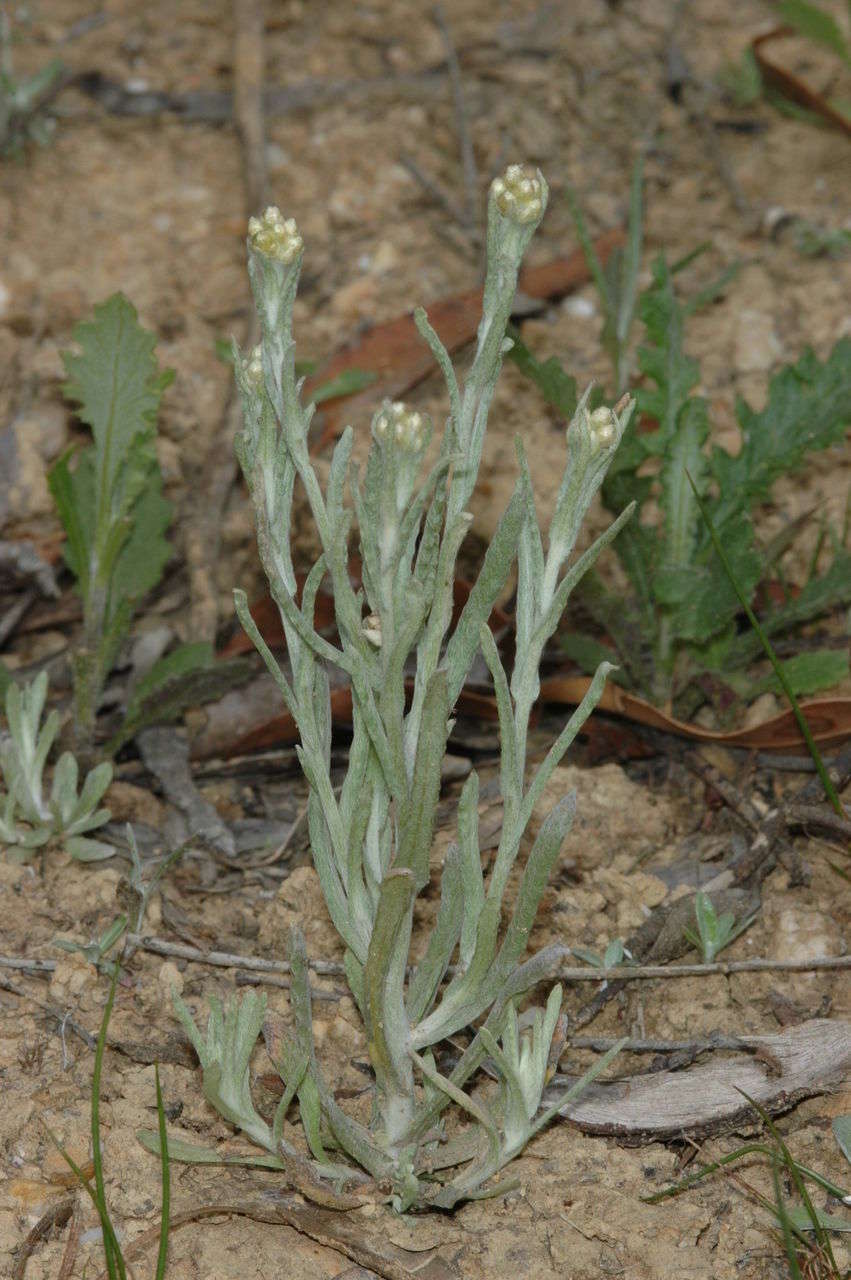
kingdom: Plantae
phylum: Tracheophyta
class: Magnoliopsida
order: Asterales
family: Asteraceae
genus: Helichrysum
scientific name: Helichrysum luteoalbum
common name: Daisy
